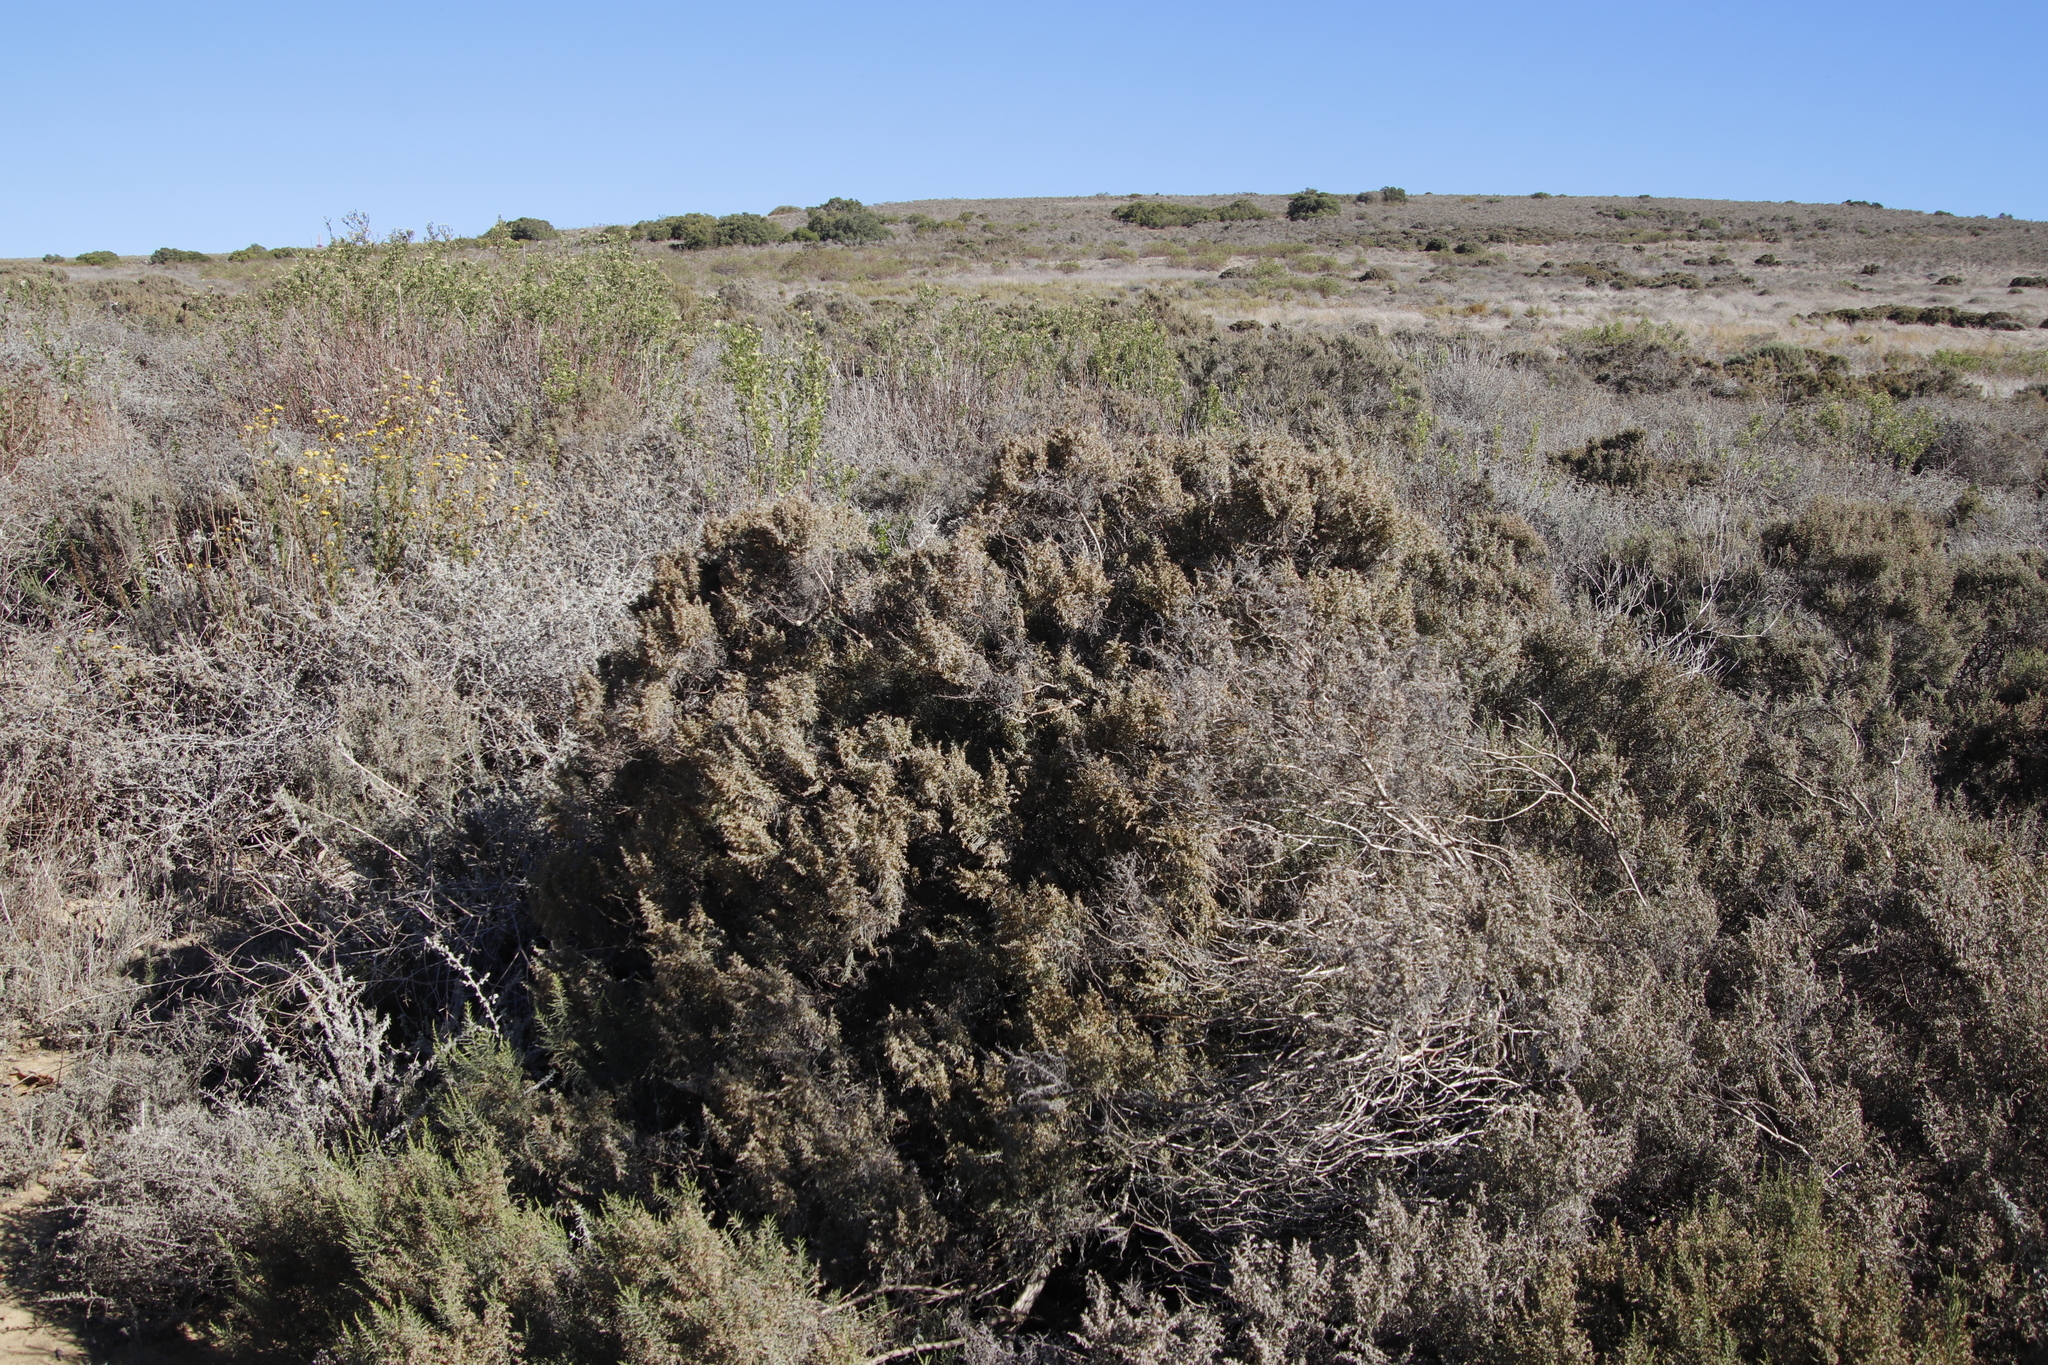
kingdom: Plantae
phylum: Tracheophyta
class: Magnoliopsida
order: Asterales
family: Asteraceae
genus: Dicerothamnus
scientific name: Dicerothamnus rhinocerotis
